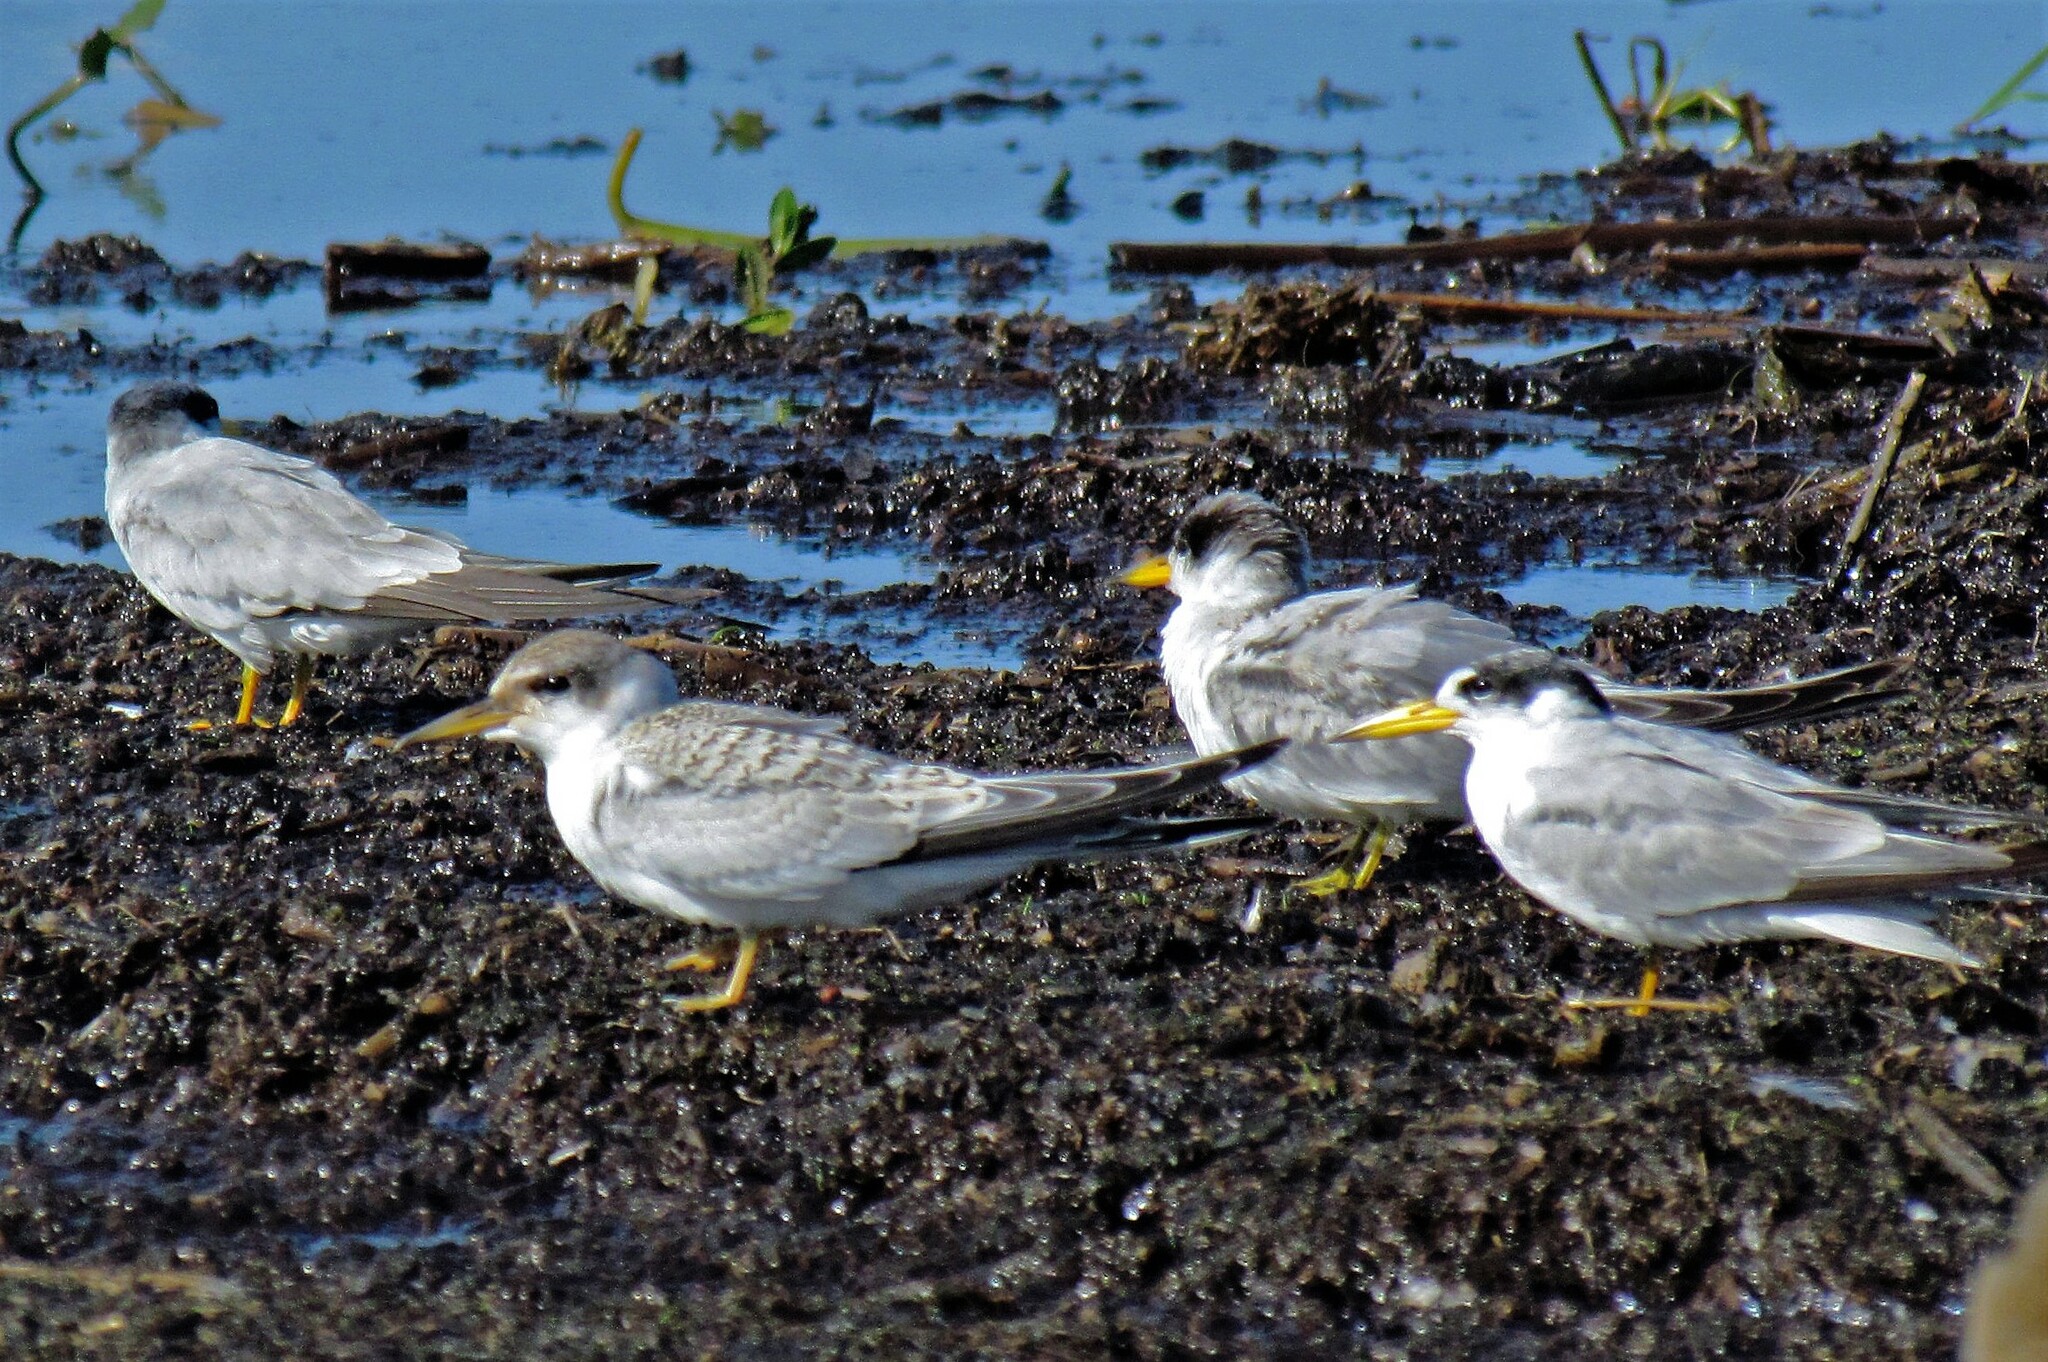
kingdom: Animalia
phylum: Chordata
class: Aves
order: Charadriiformes
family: Laridae
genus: Sternula
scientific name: Sternula superciliaris
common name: Yellow-billed tern
